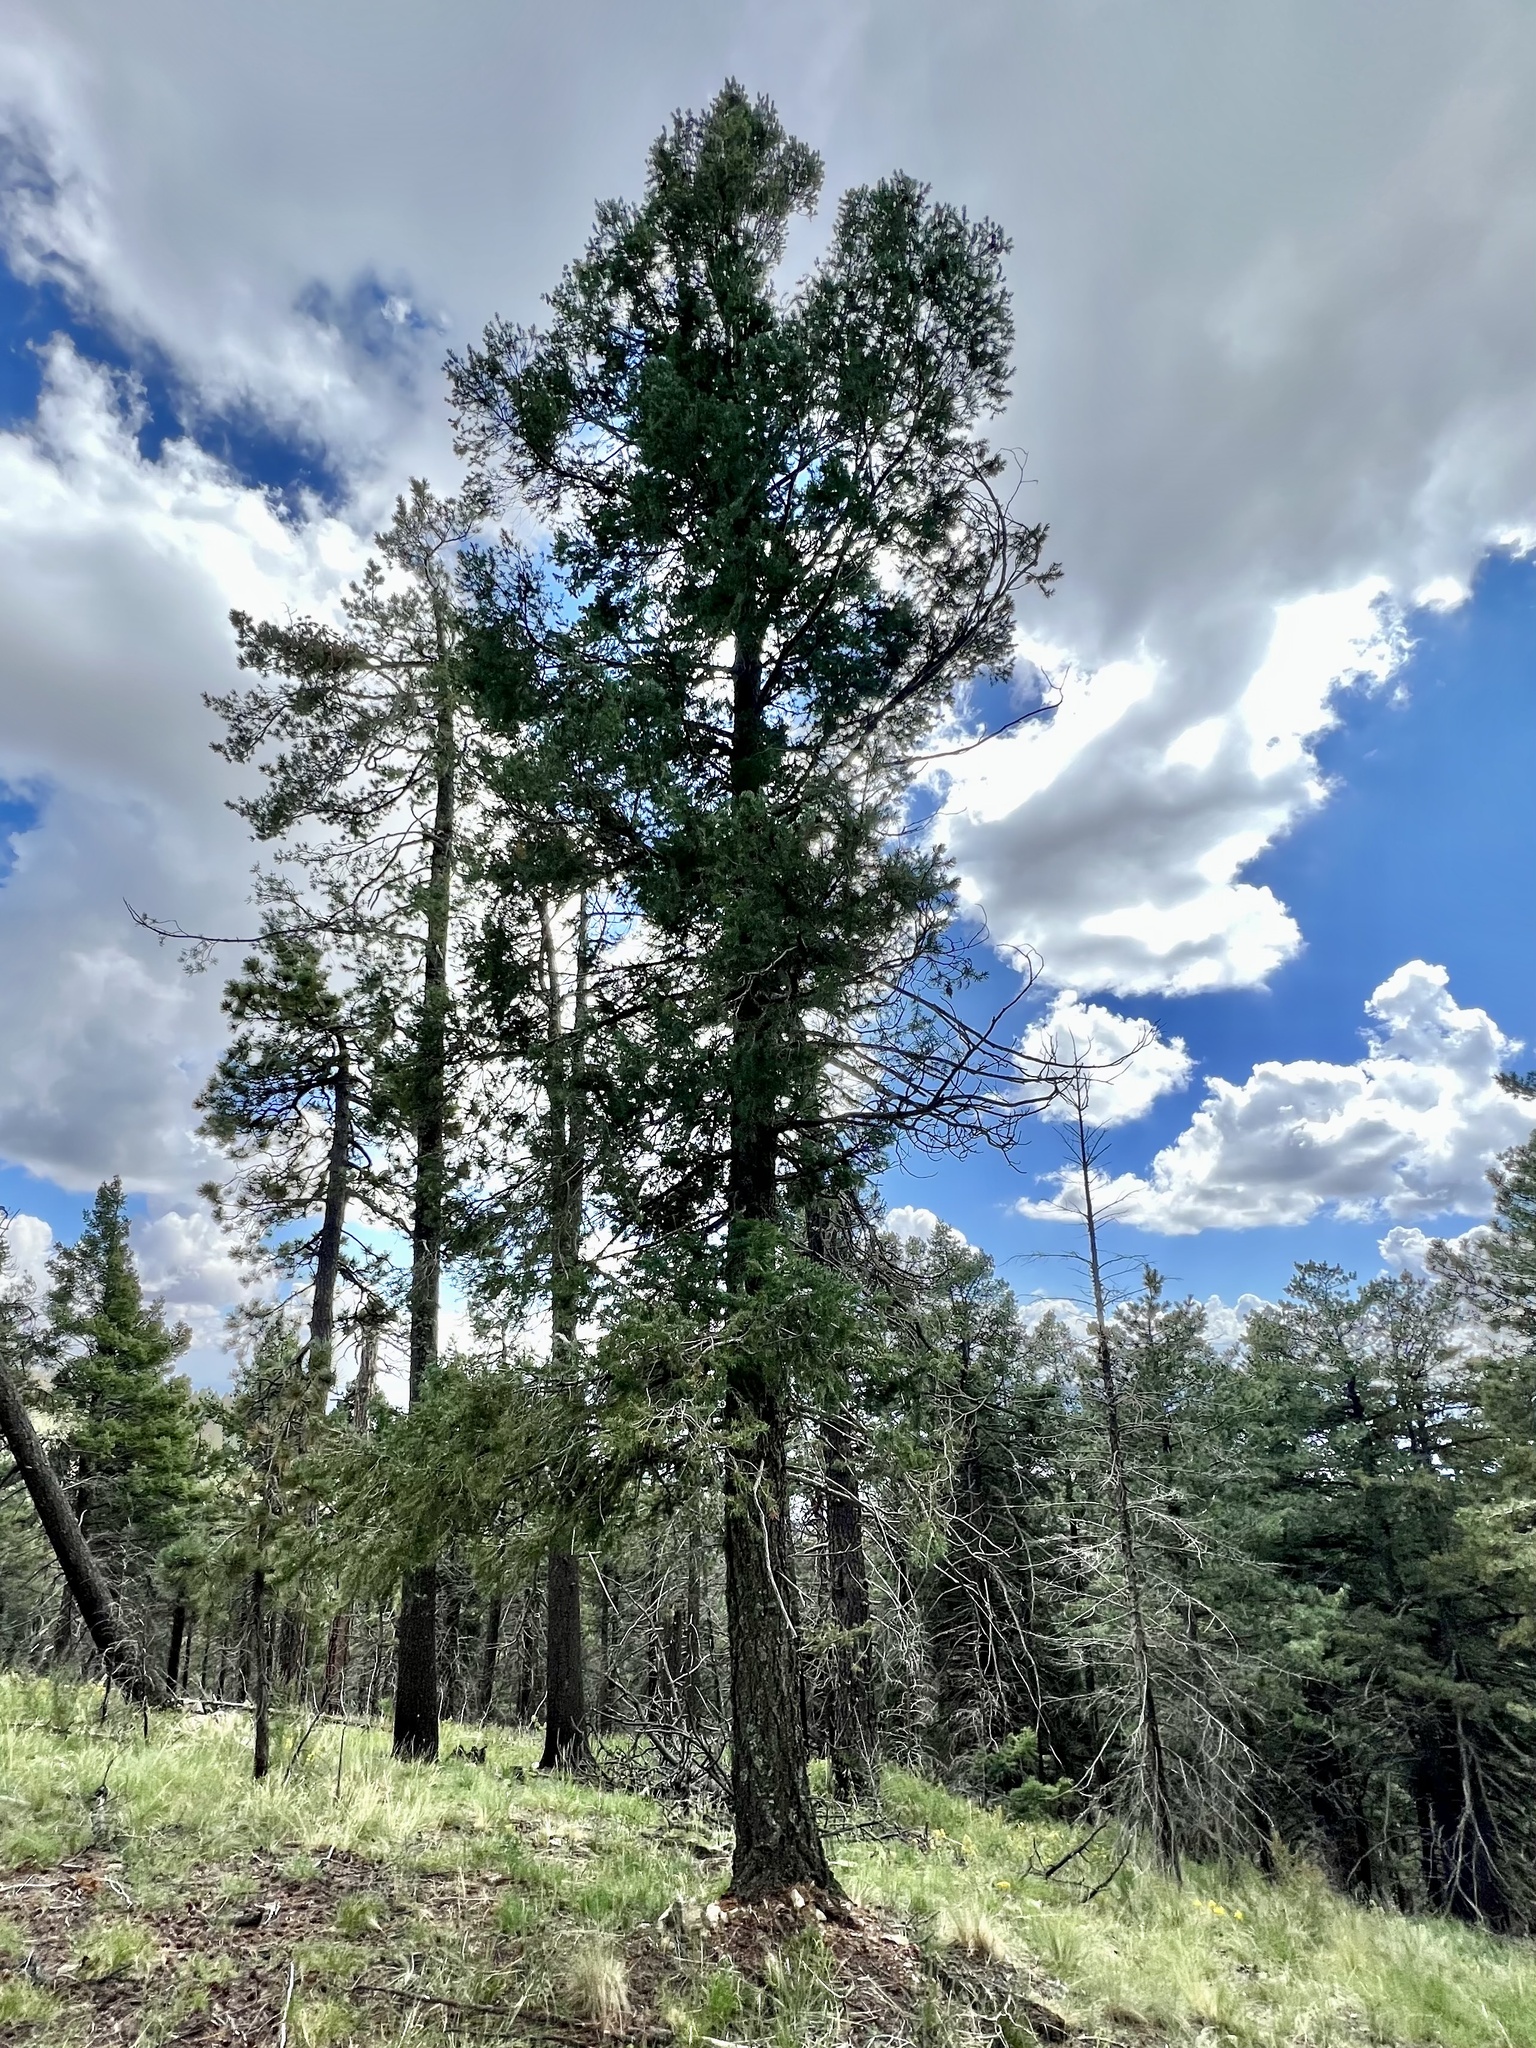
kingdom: Plantae
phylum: Tracheophyta
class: Pinopsida
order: Pinales
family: Pinaceae
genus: Pseudotsuga
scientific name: Pseudotsuga menziesii
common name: Douglas fir
